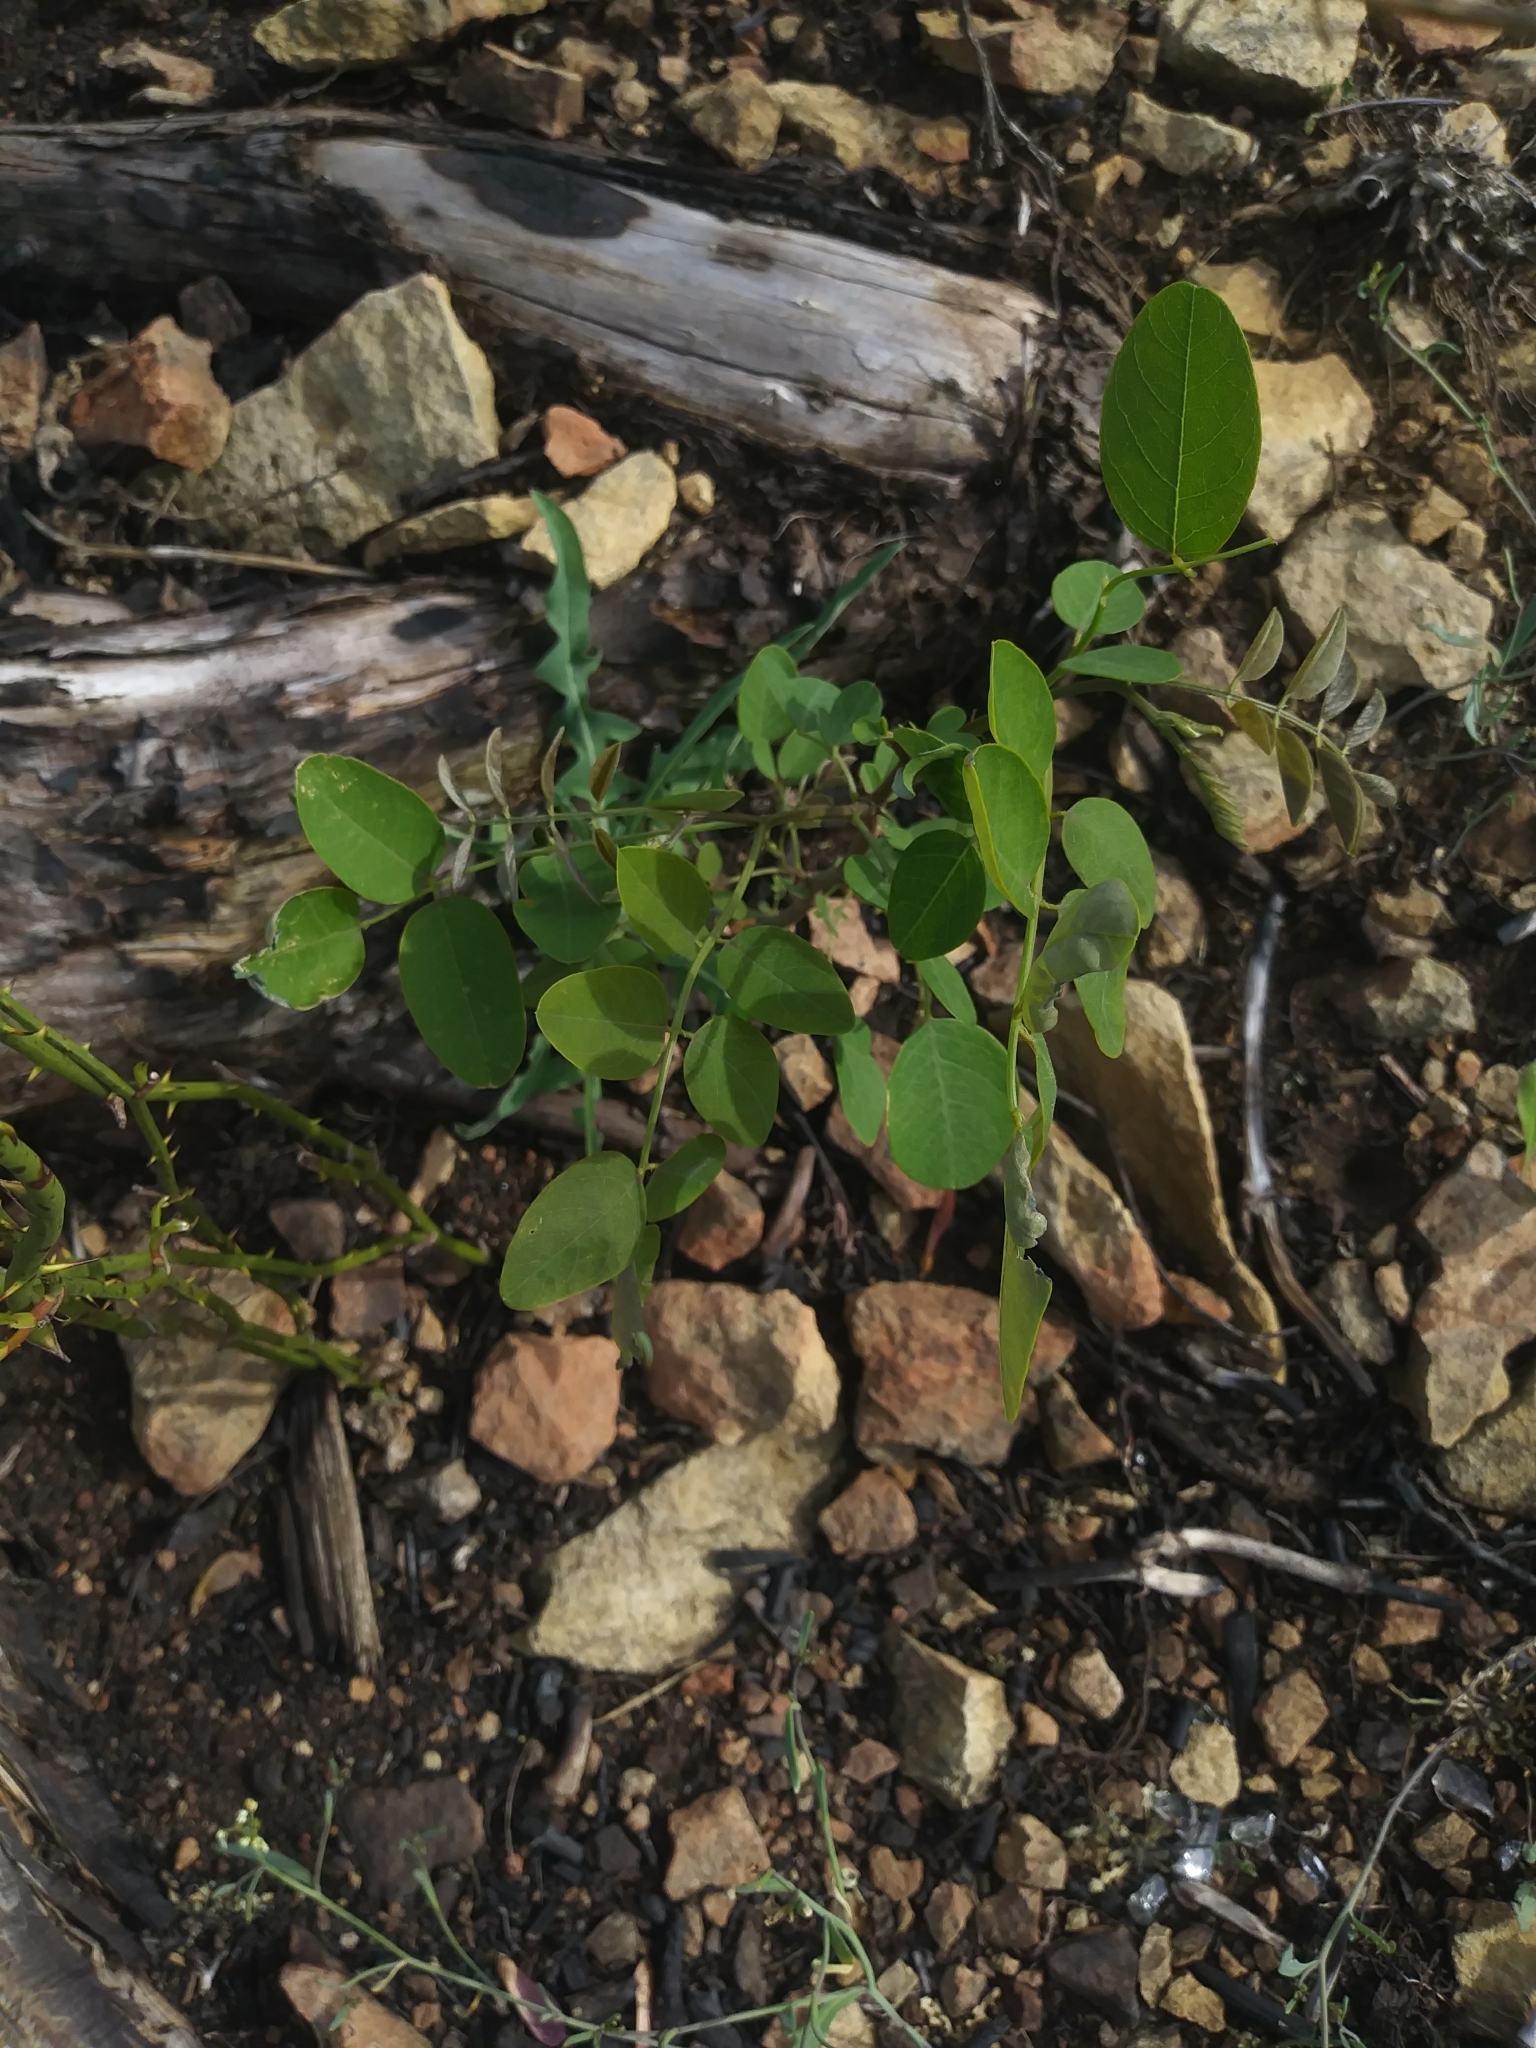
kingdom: Plantae
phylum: Tracheophyta
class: Magnoliopsida
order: Fabales
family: Fabaceae
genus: Robinia
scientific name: Robinia pseudoacacia
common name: Black locust
